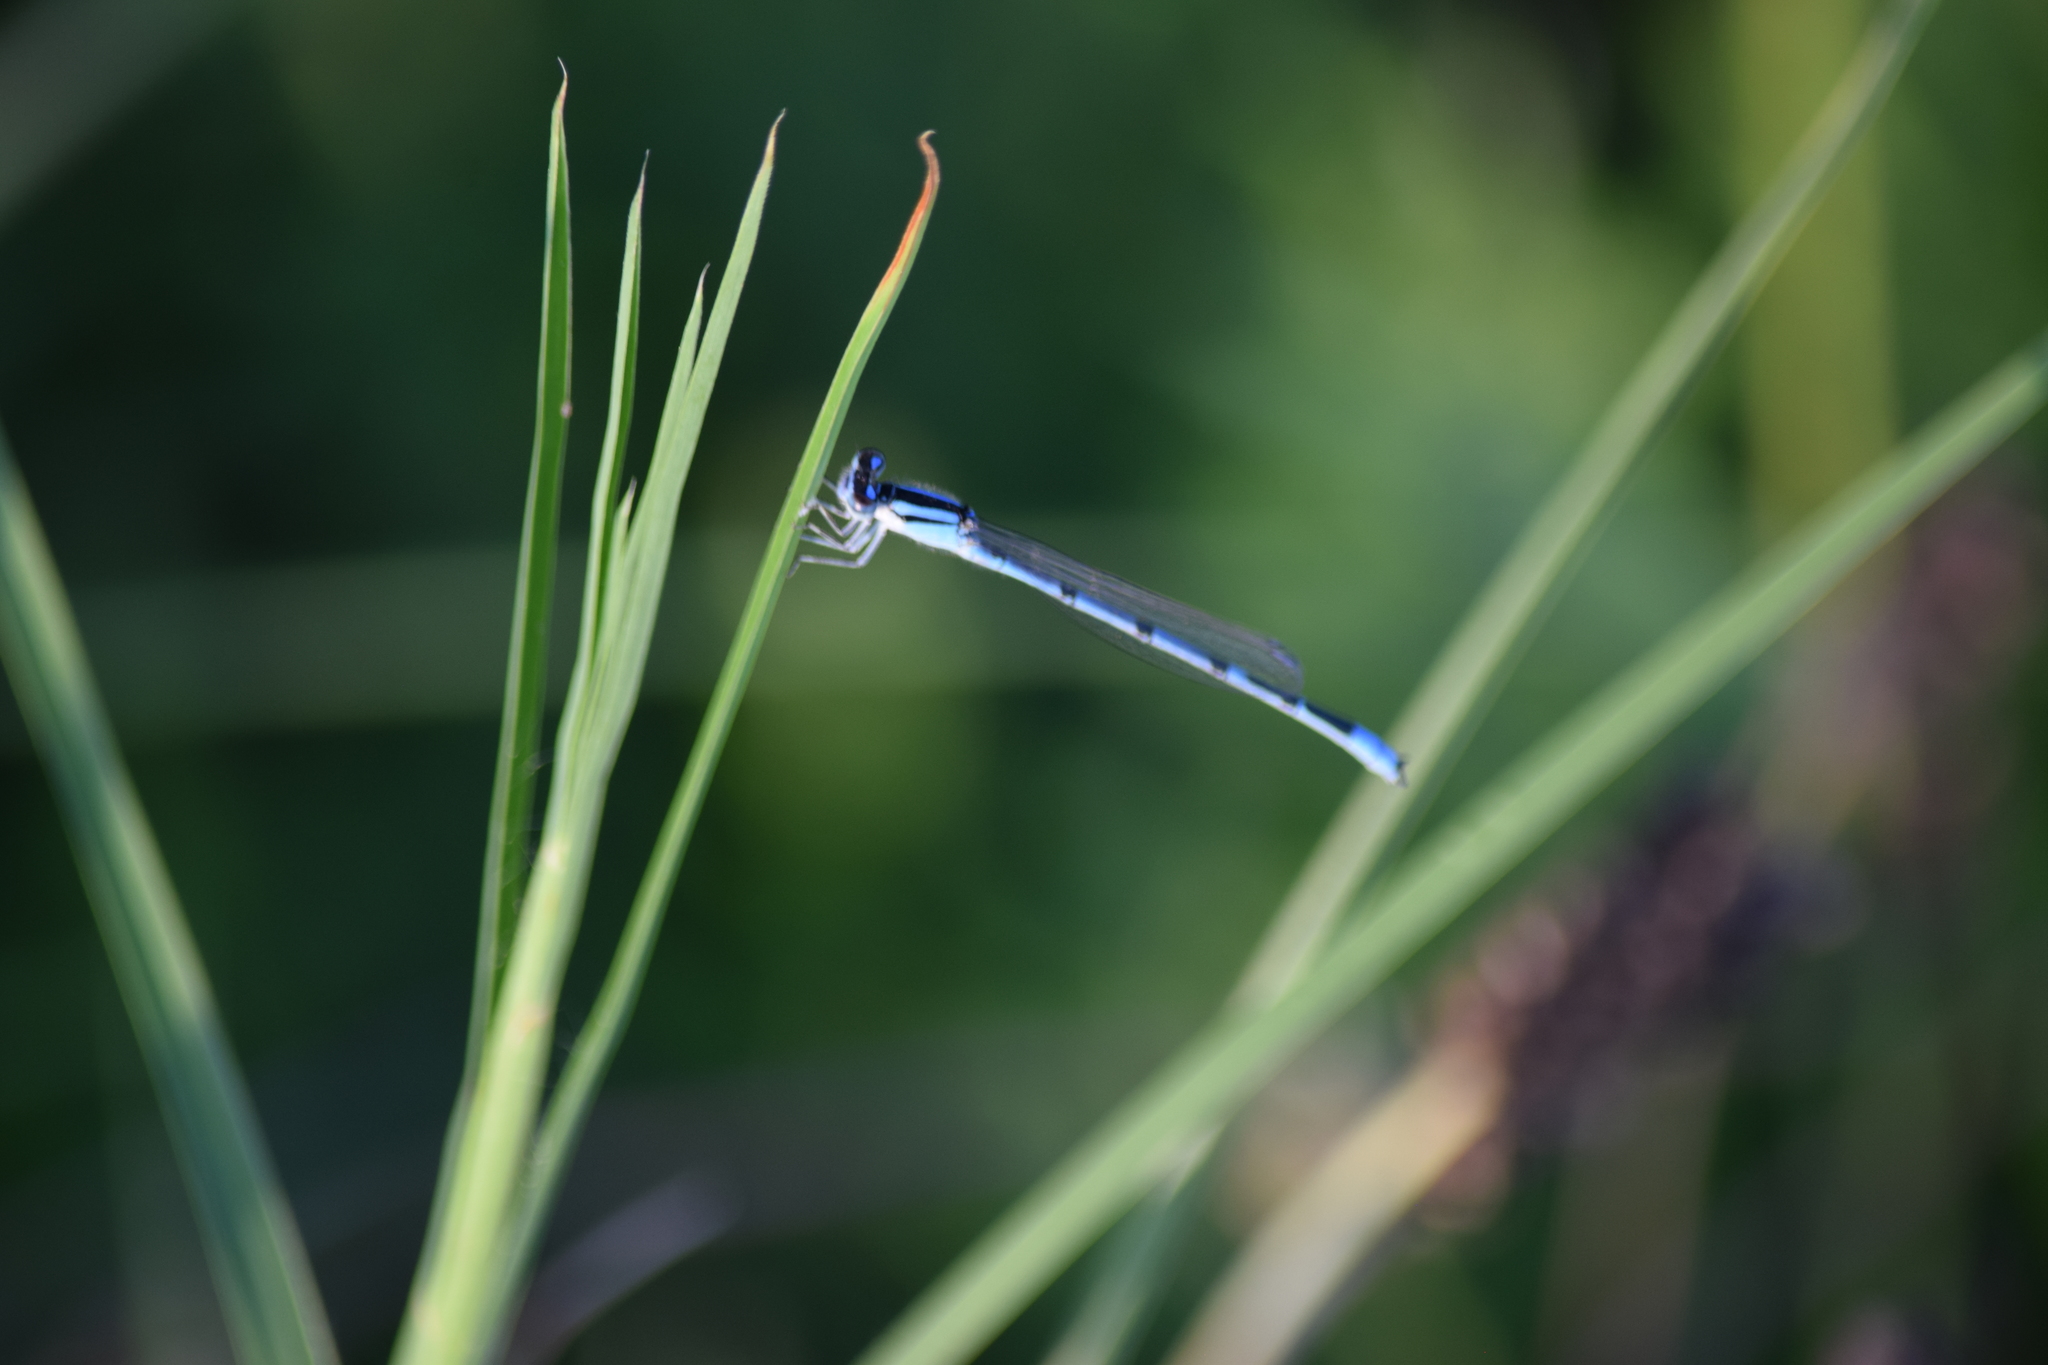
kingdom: Animalia
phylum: Arthropoda
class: Insecta
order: Odonata
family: Coenagrionidae
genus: Enallagma
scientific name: Enallagma civile
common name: Damselfly
